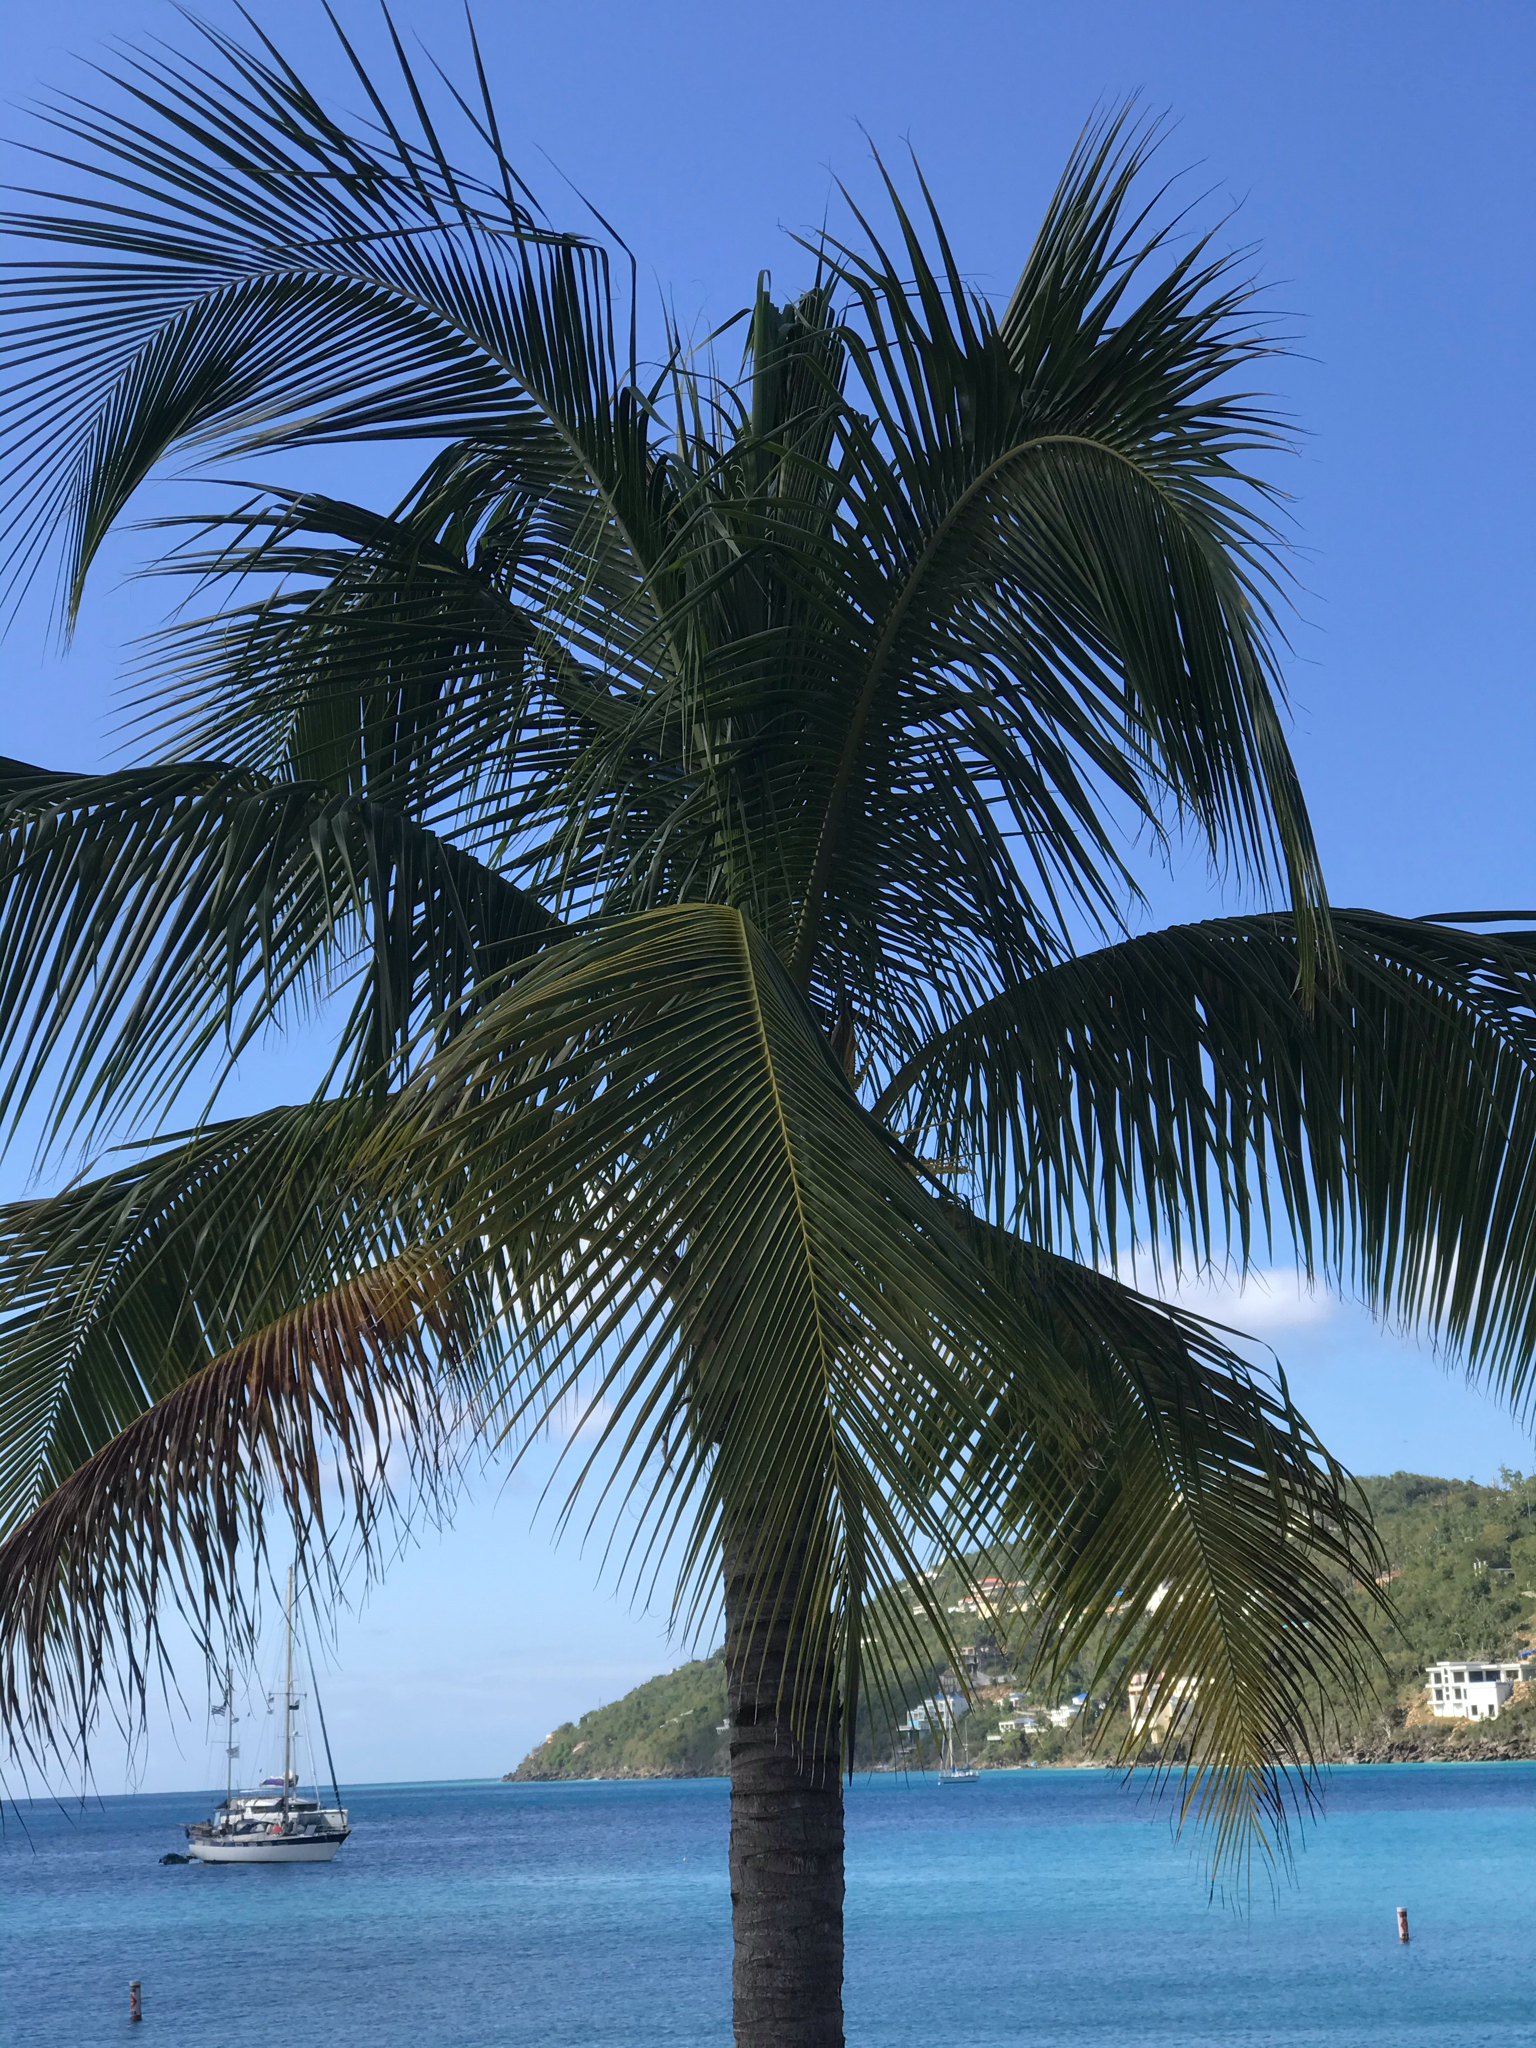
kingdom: Plantae
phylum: Tracheophyta
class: Liliopsida
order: Arecales
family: Arecaceae
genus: Cocos
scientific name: Cocos nucifera
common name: Coconut palm
